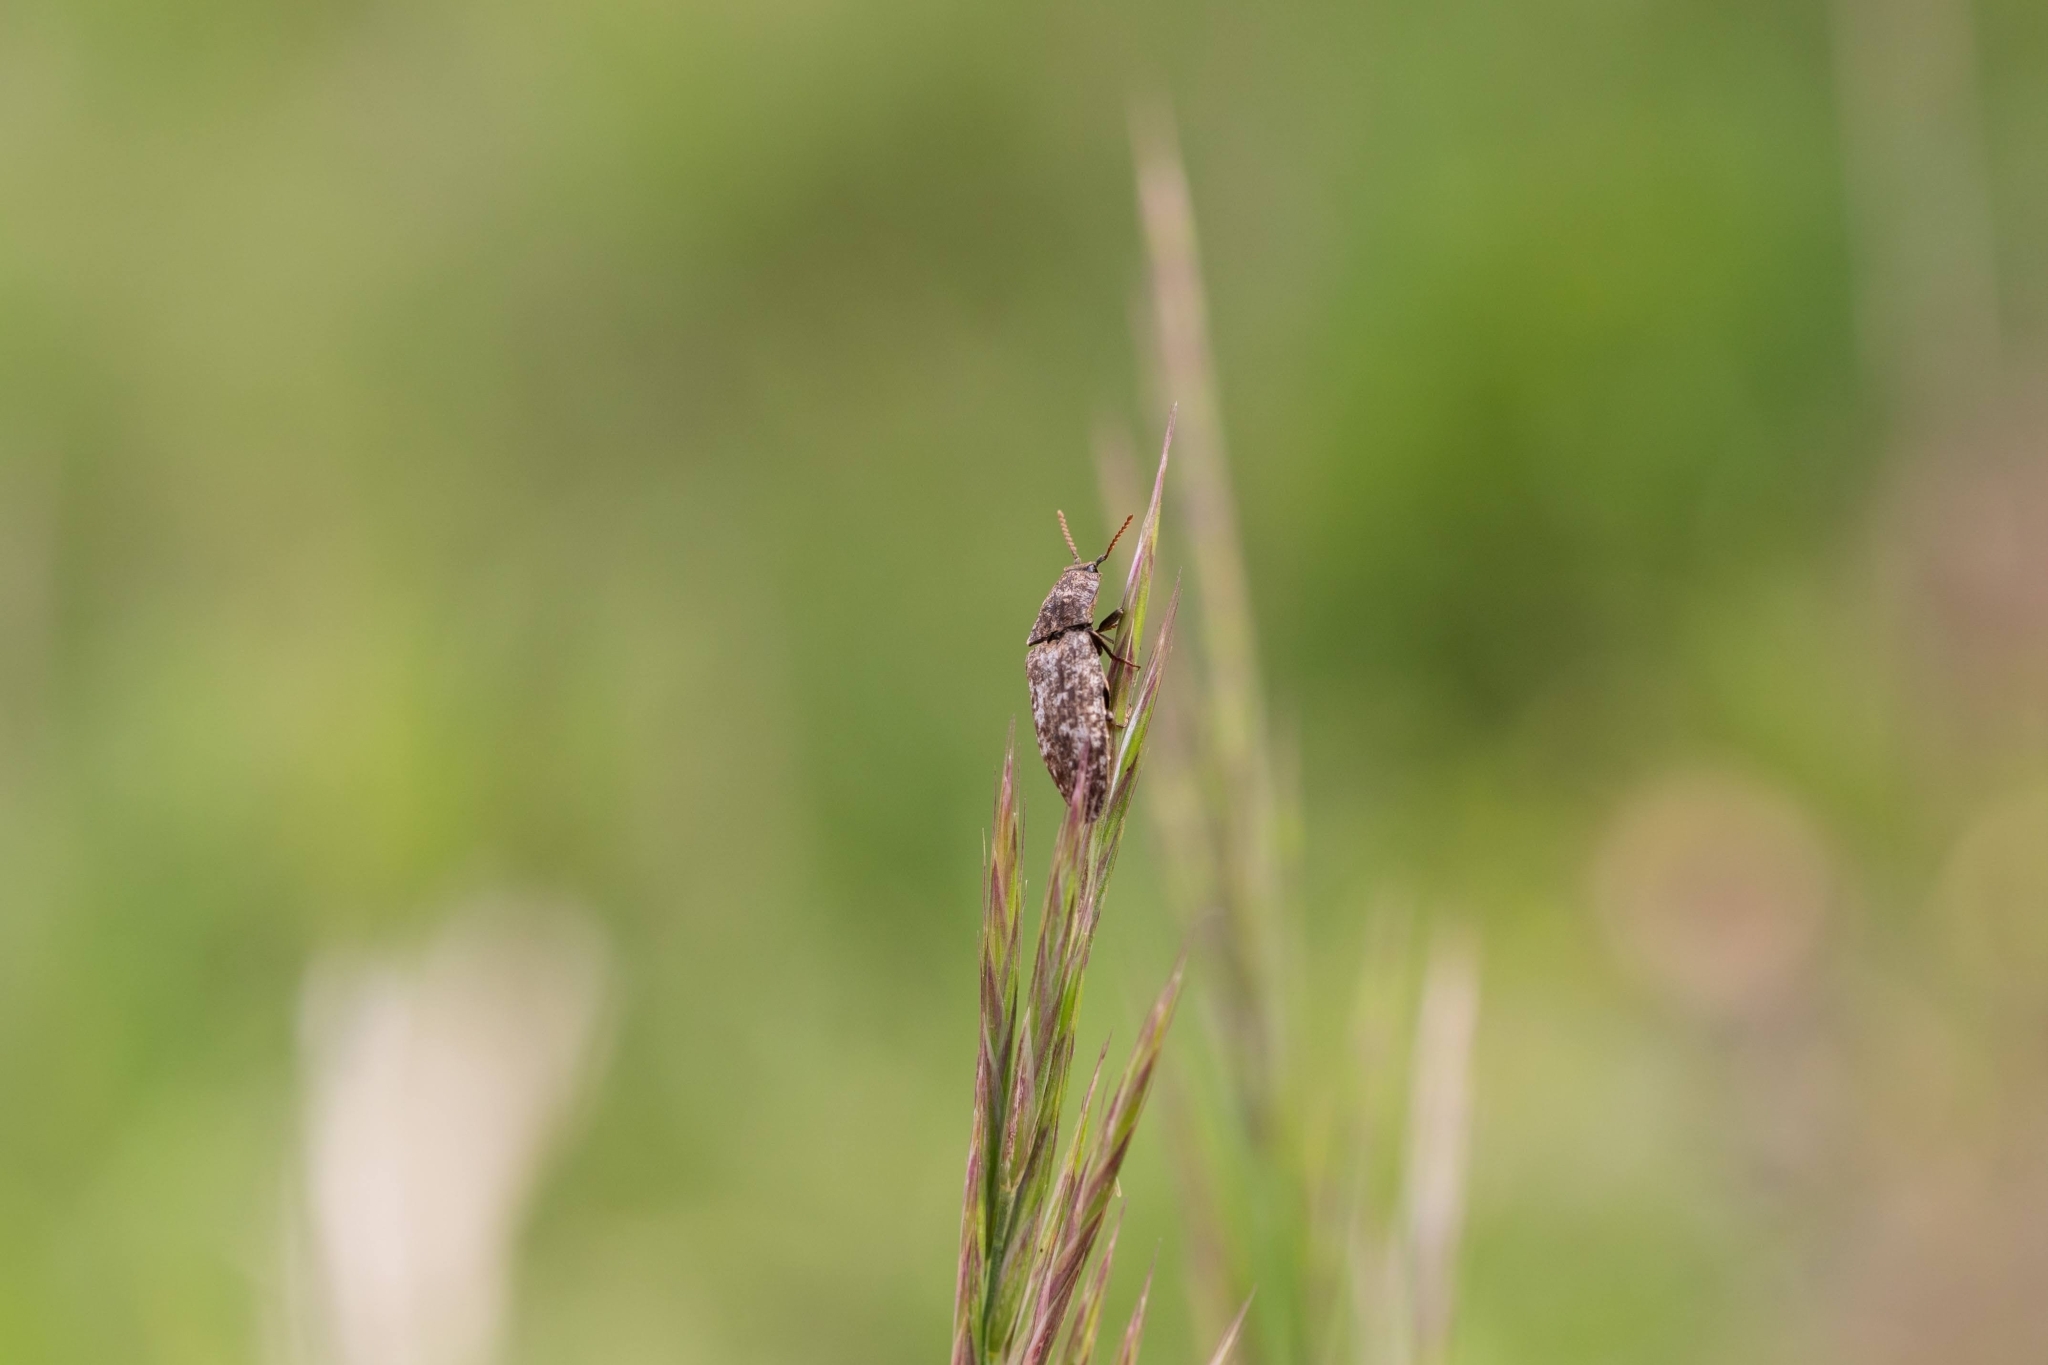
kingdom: Animalia
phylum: Arthropoda
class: Insecta
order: Coleoptera
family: Elateridae
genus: Agrypnus
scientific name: Agrypnus murinus
